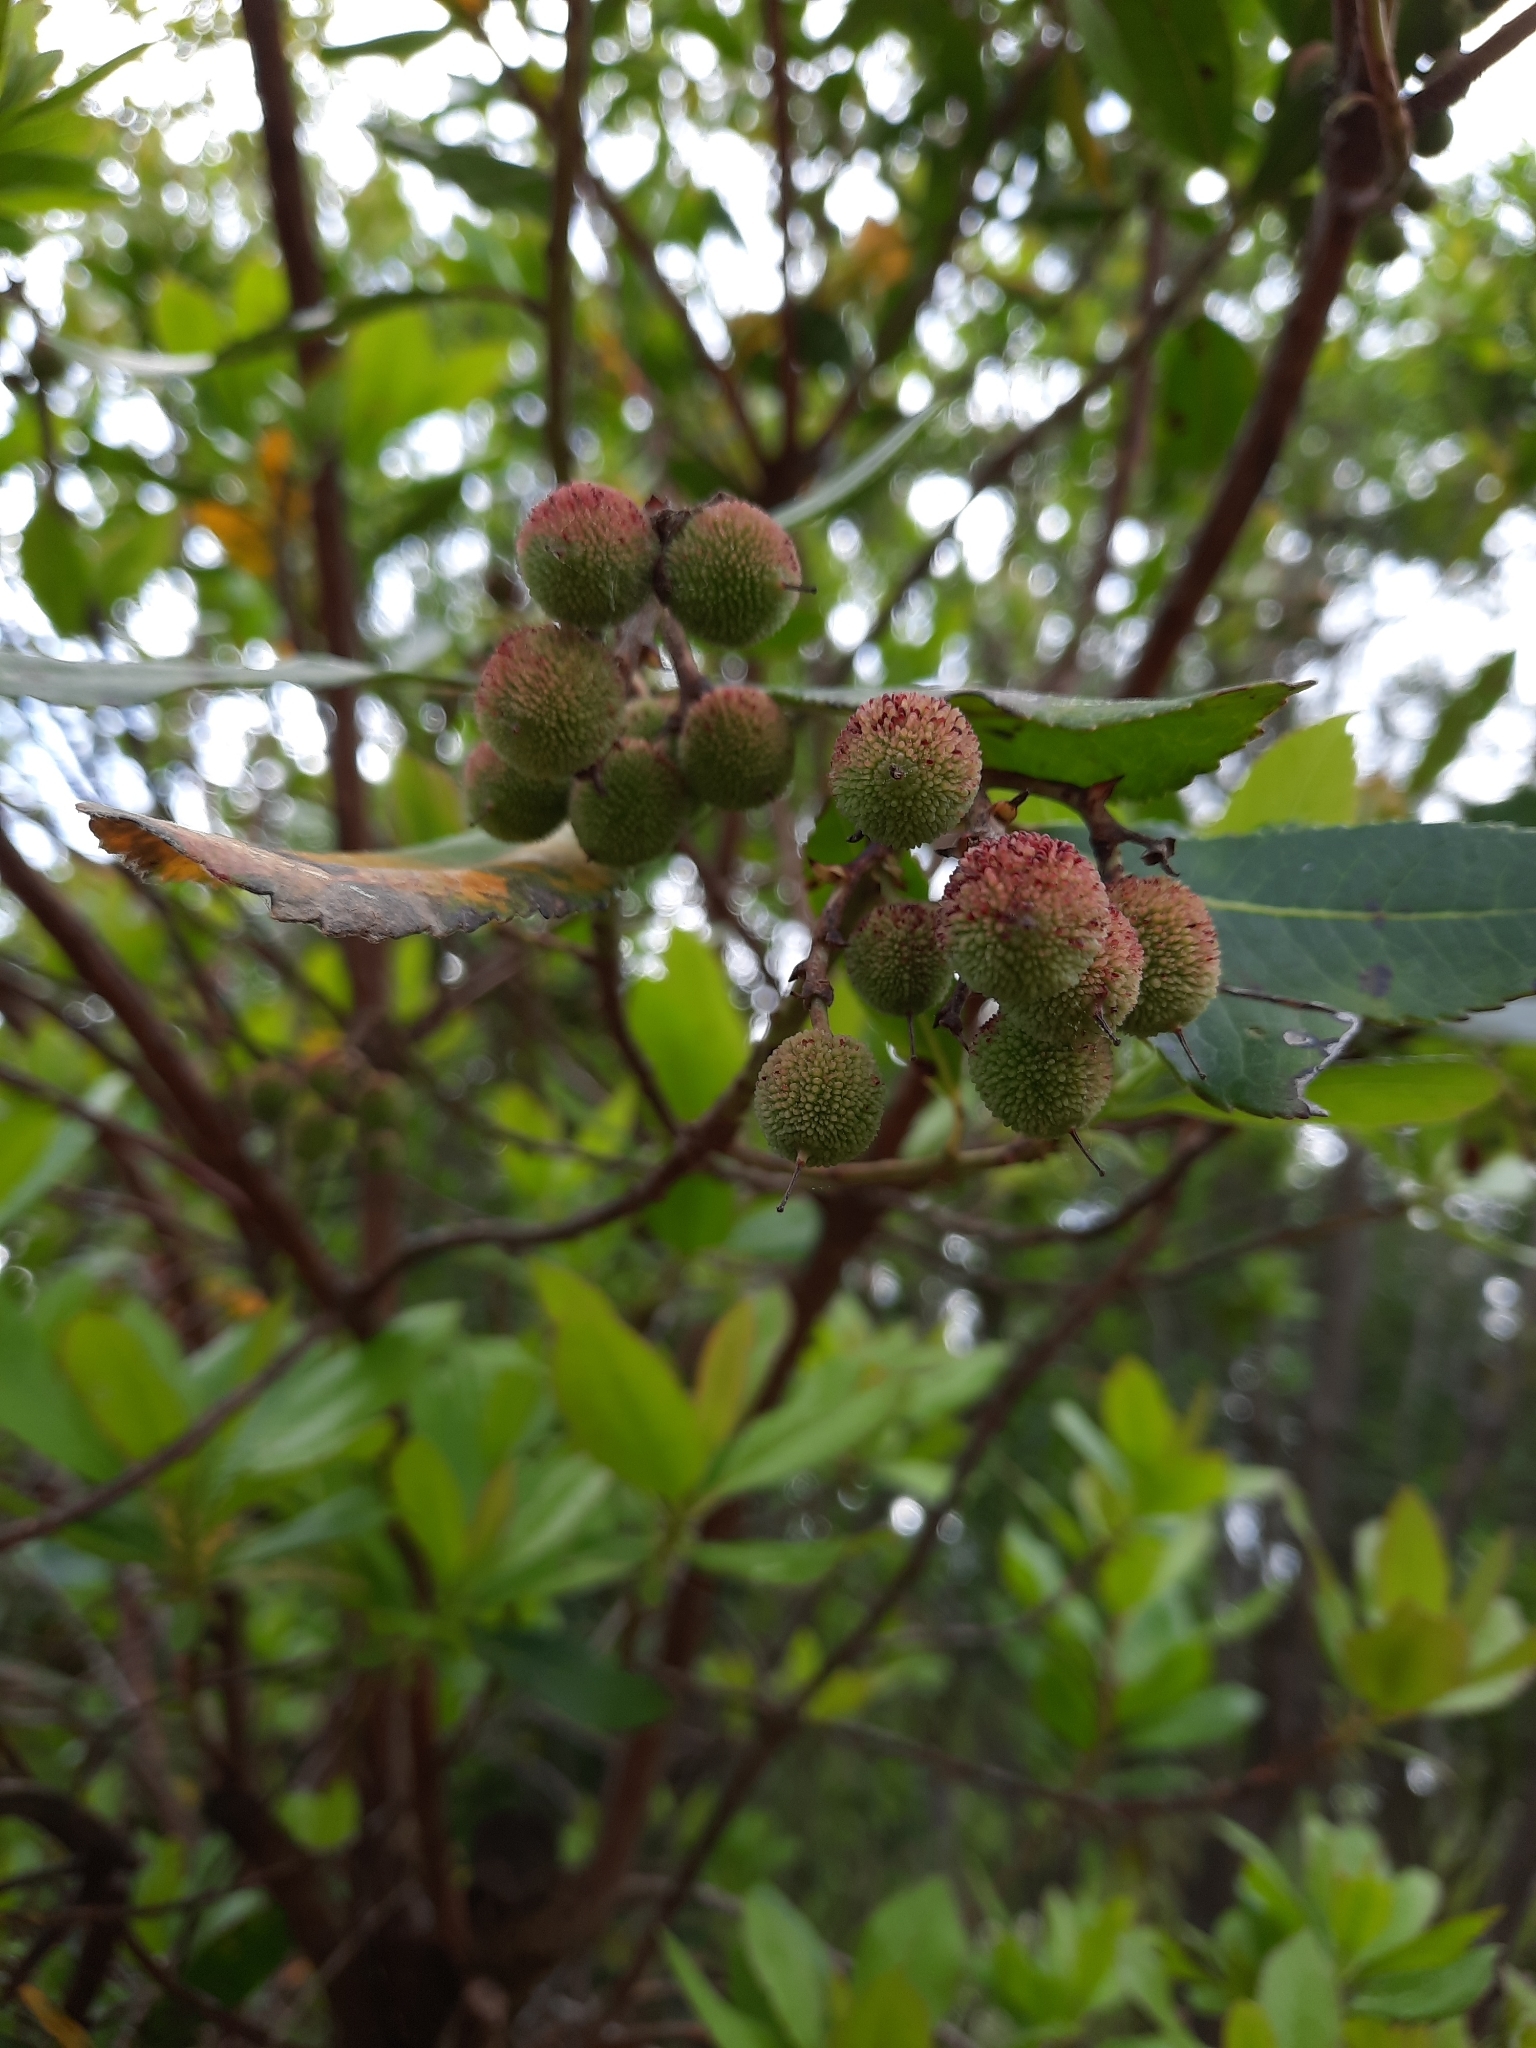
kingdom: Plantae
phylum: Tracheophyta
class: Magnoliopsida
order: Ericales
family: Ericaceae
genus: Arbutus
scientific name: Arbutus unedo
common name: Strawberry-tree
